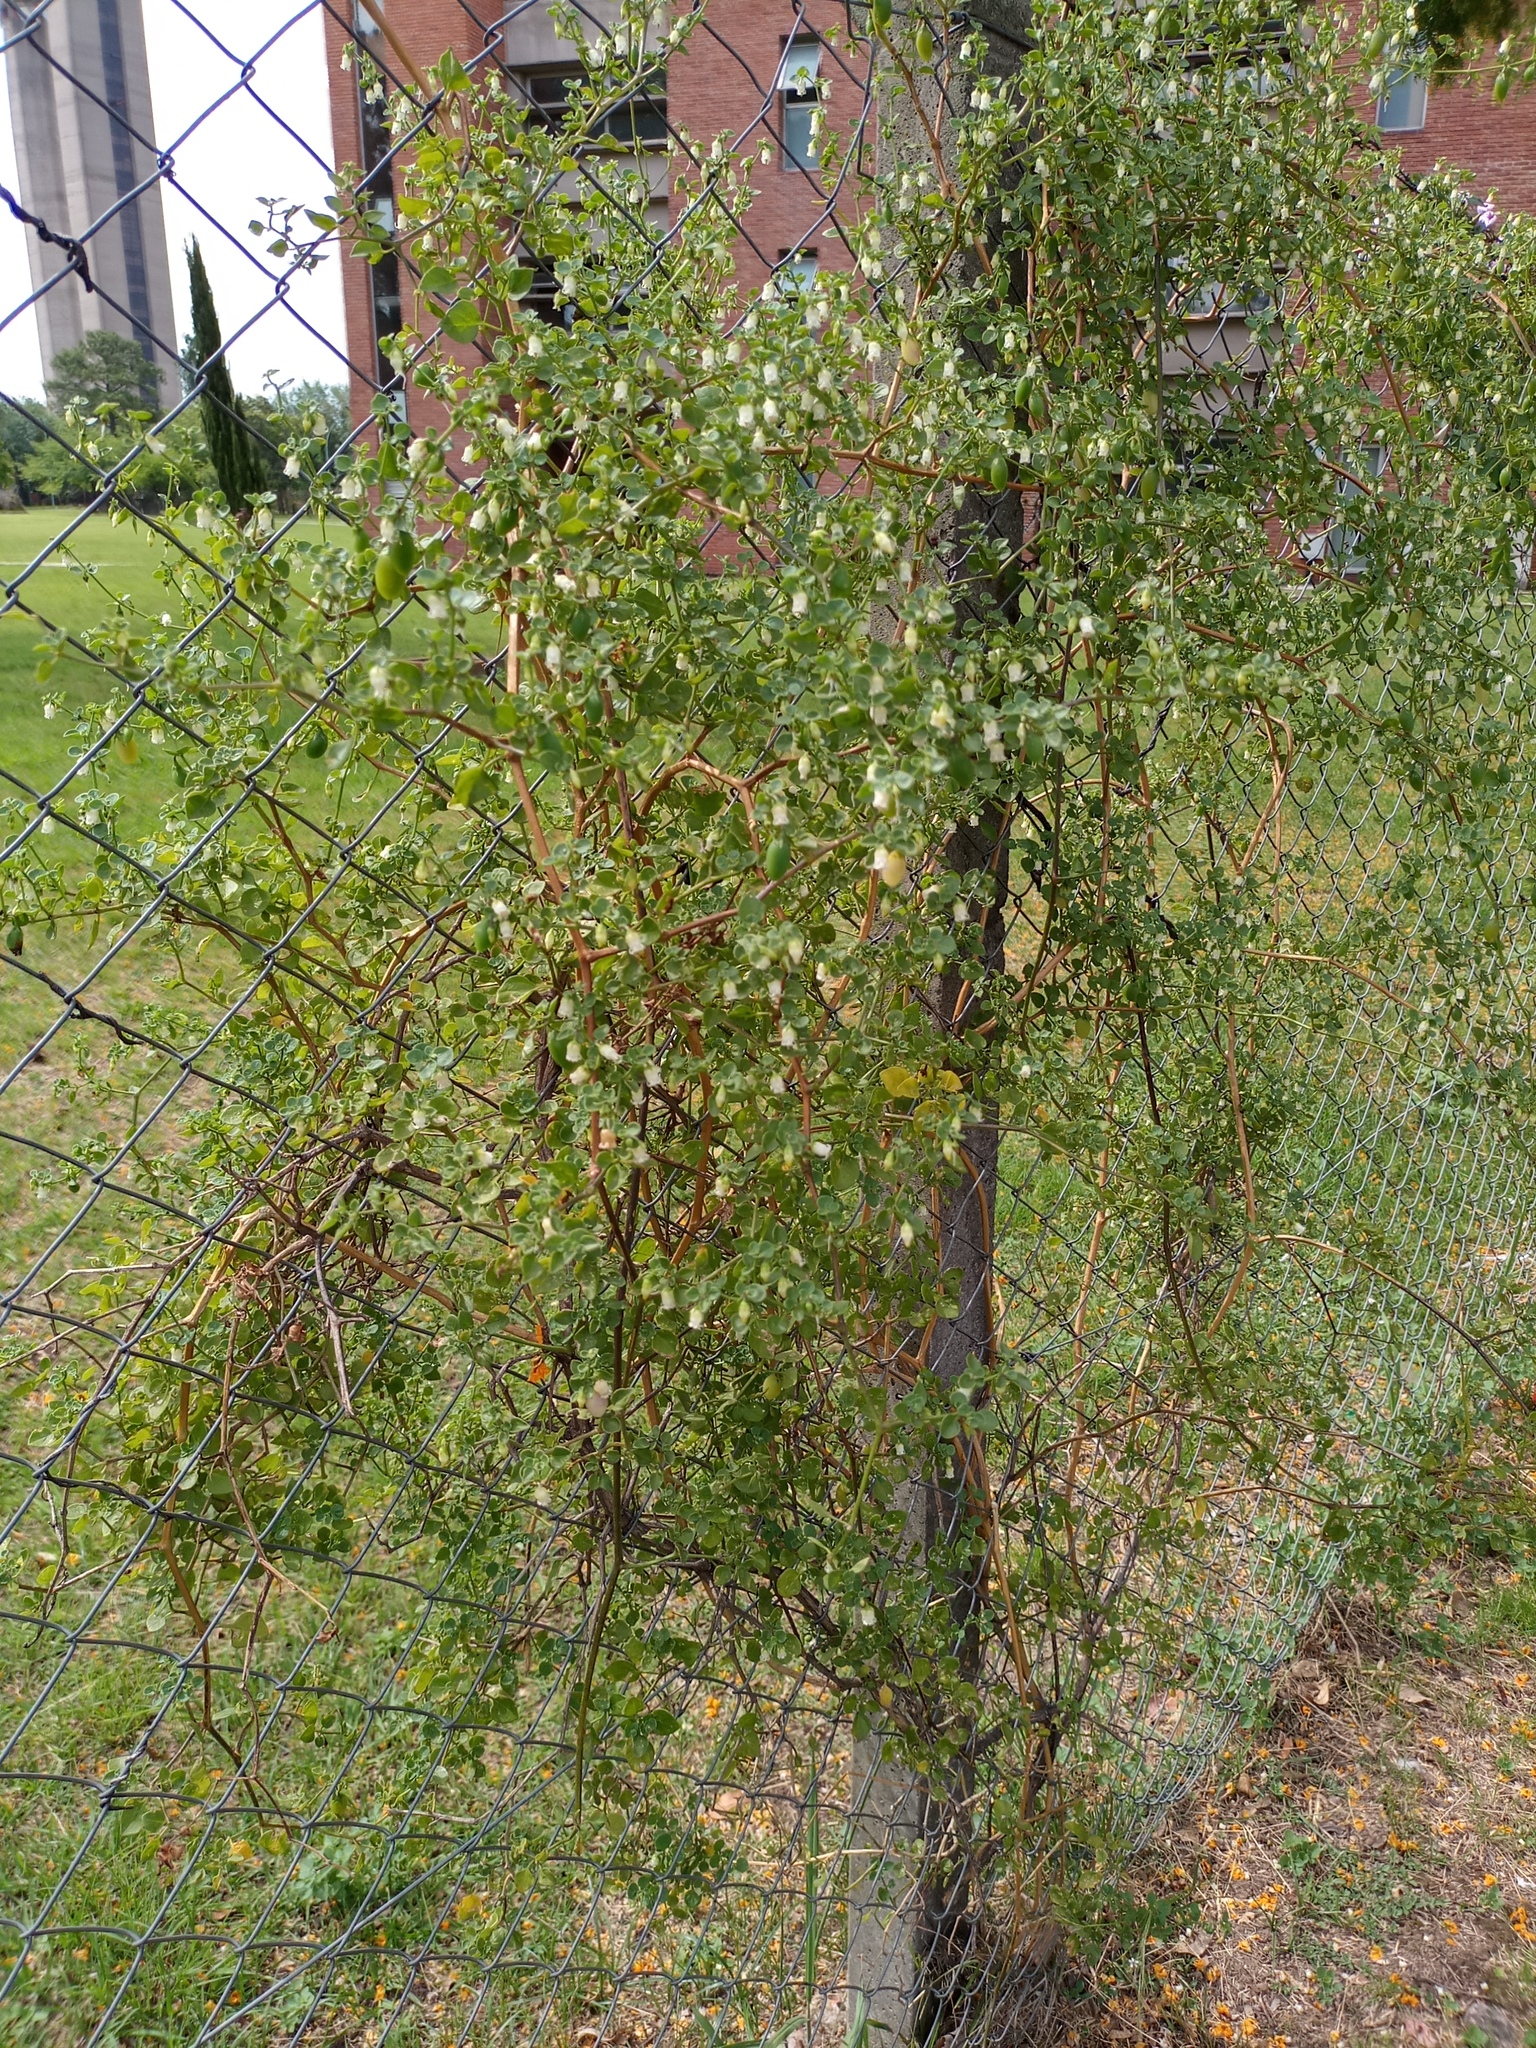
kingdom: Plantae
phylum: Tracheophyta
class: Magnoliopsida
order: Solanales
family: Solanaceae
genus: Salpichroa
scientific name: Salpichroa origanifolia
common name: Lily-of-the-valley-vine
